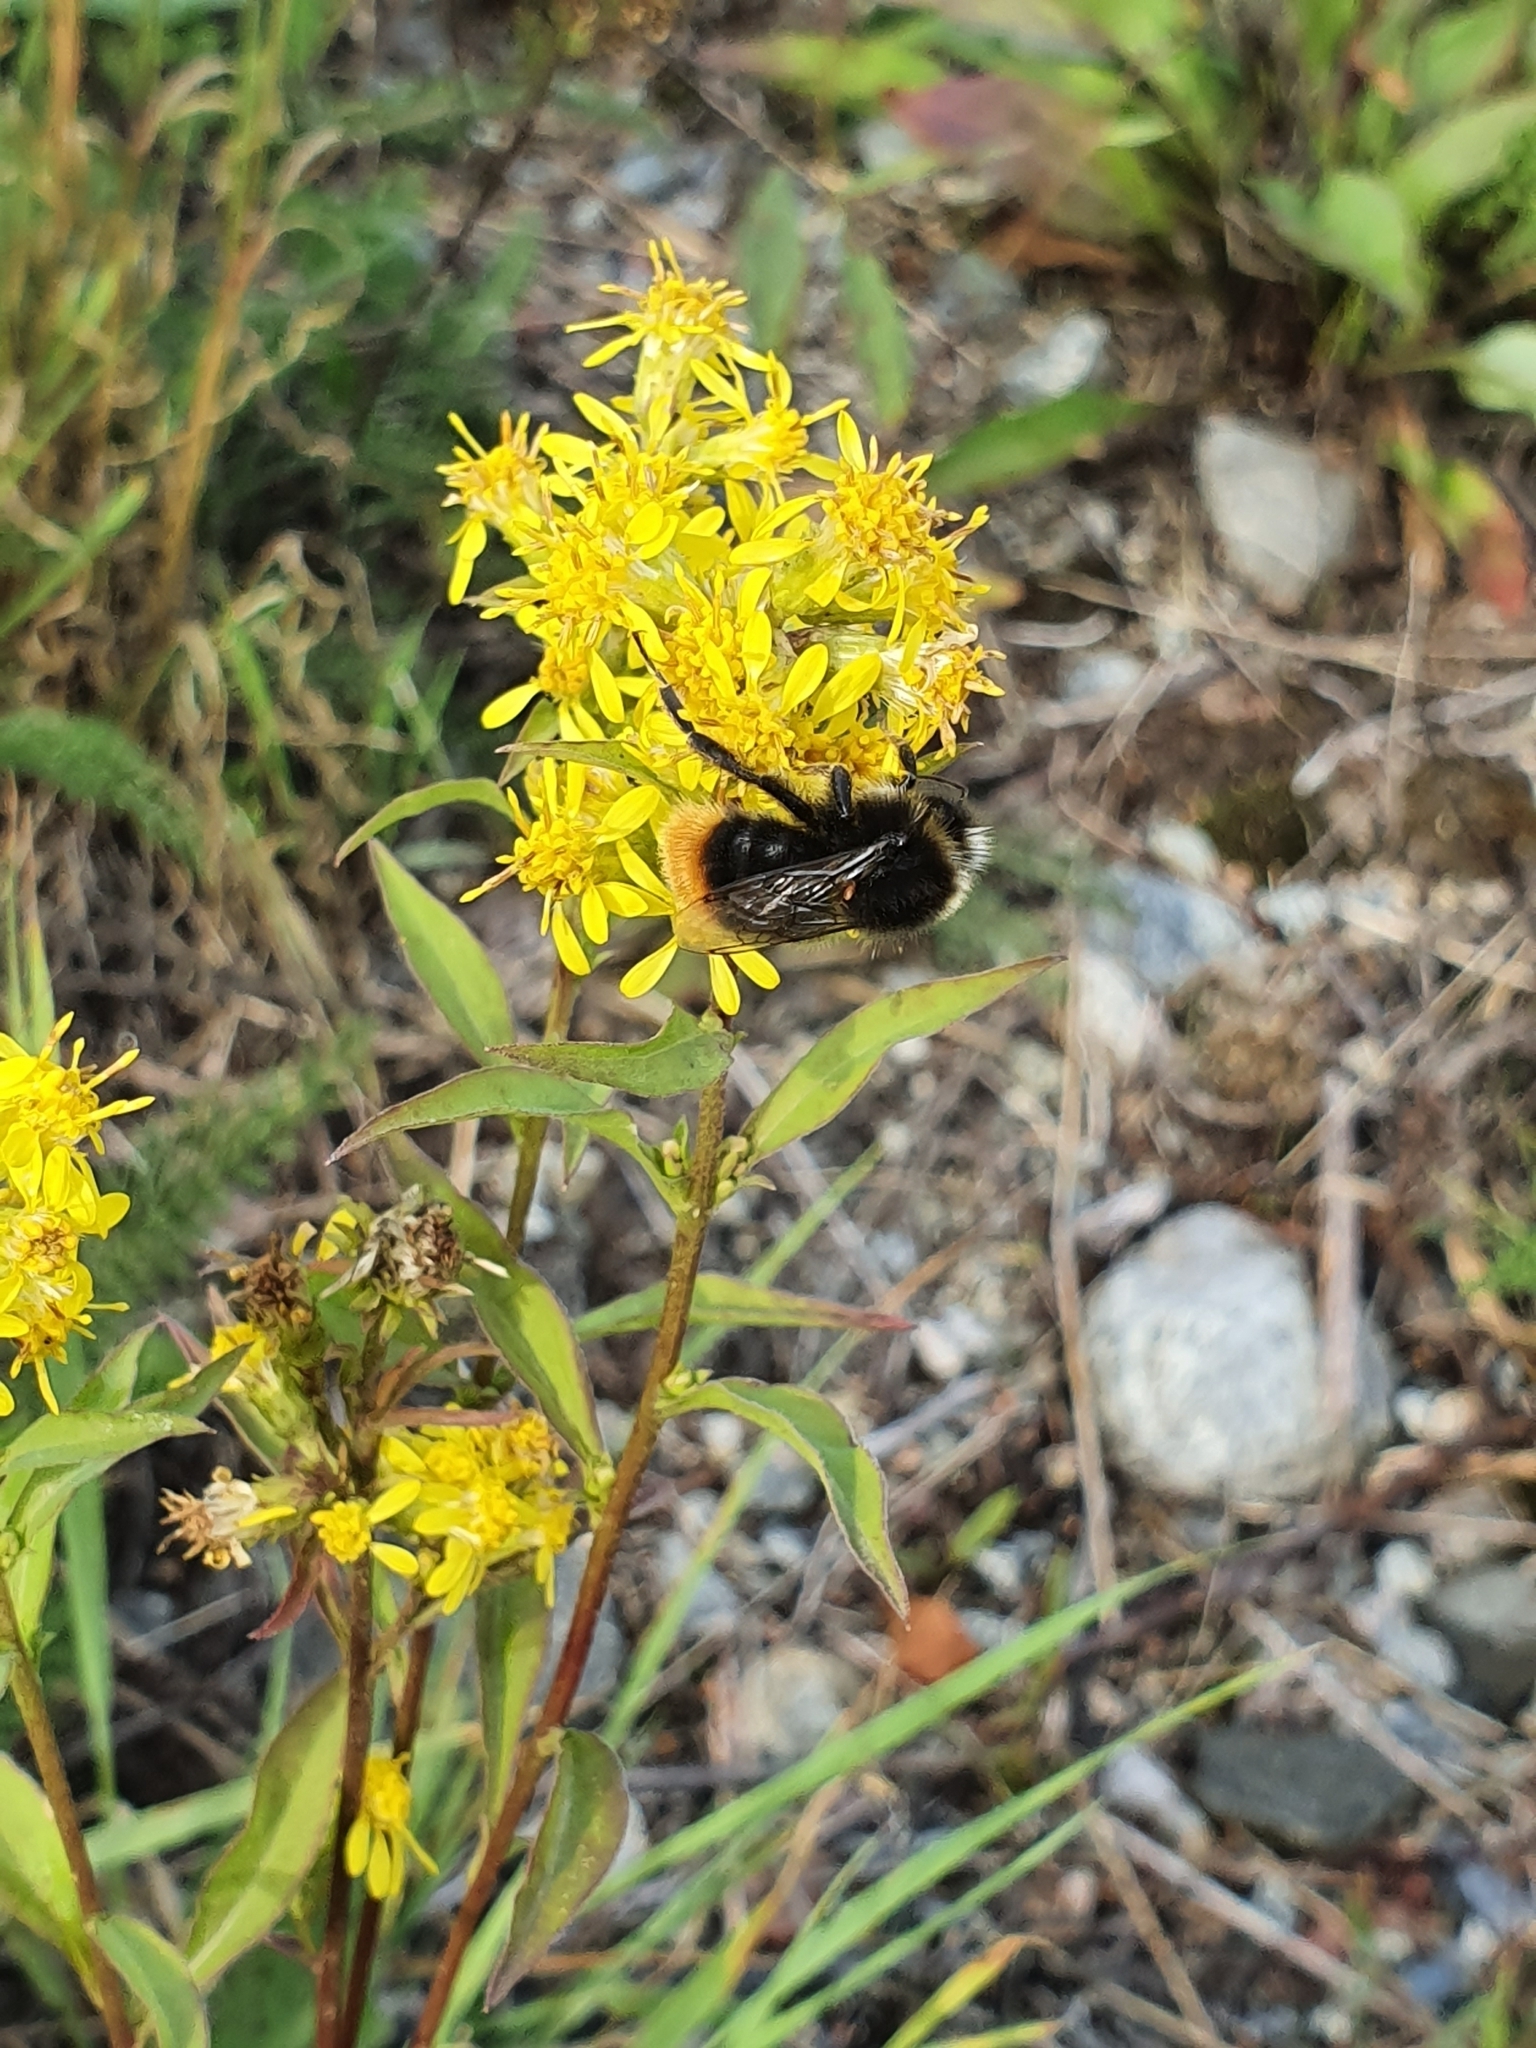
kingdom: Animalia
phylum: Arthropoda
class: Insecta
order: Hymenoptera
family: Apidae
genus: Bombus
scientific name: Bombus lapidarius
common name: Large red-tailed humble-bee
